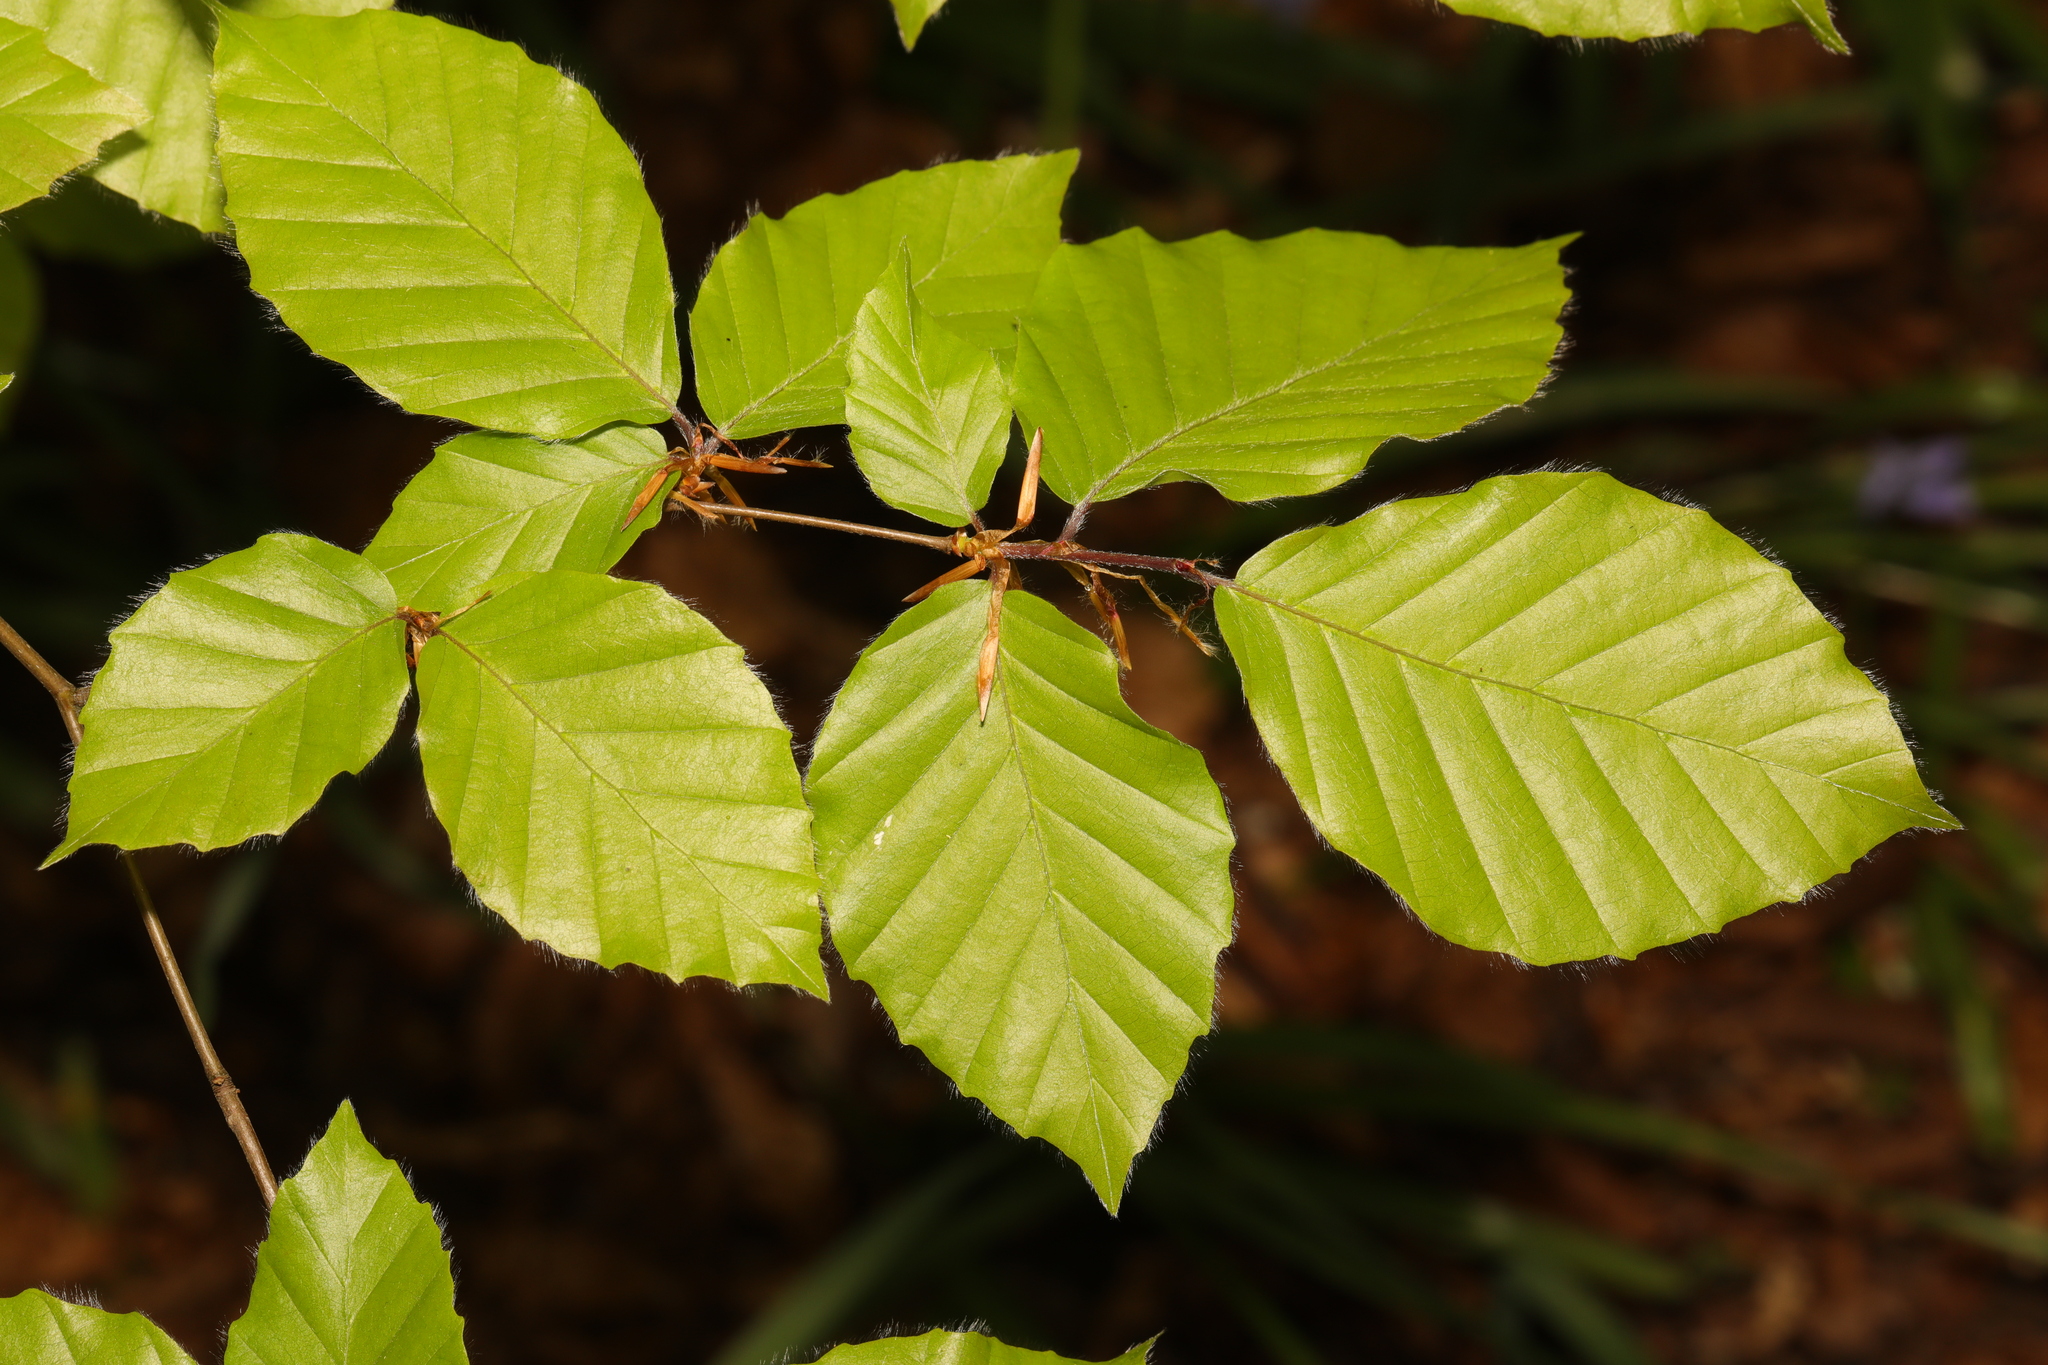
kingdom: Plantae
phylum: Tracheophyta
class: Magnoliopsida
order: Fagales
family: Fagaceae
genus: Fagus
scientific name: Fagus sylvatica
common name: Beech
